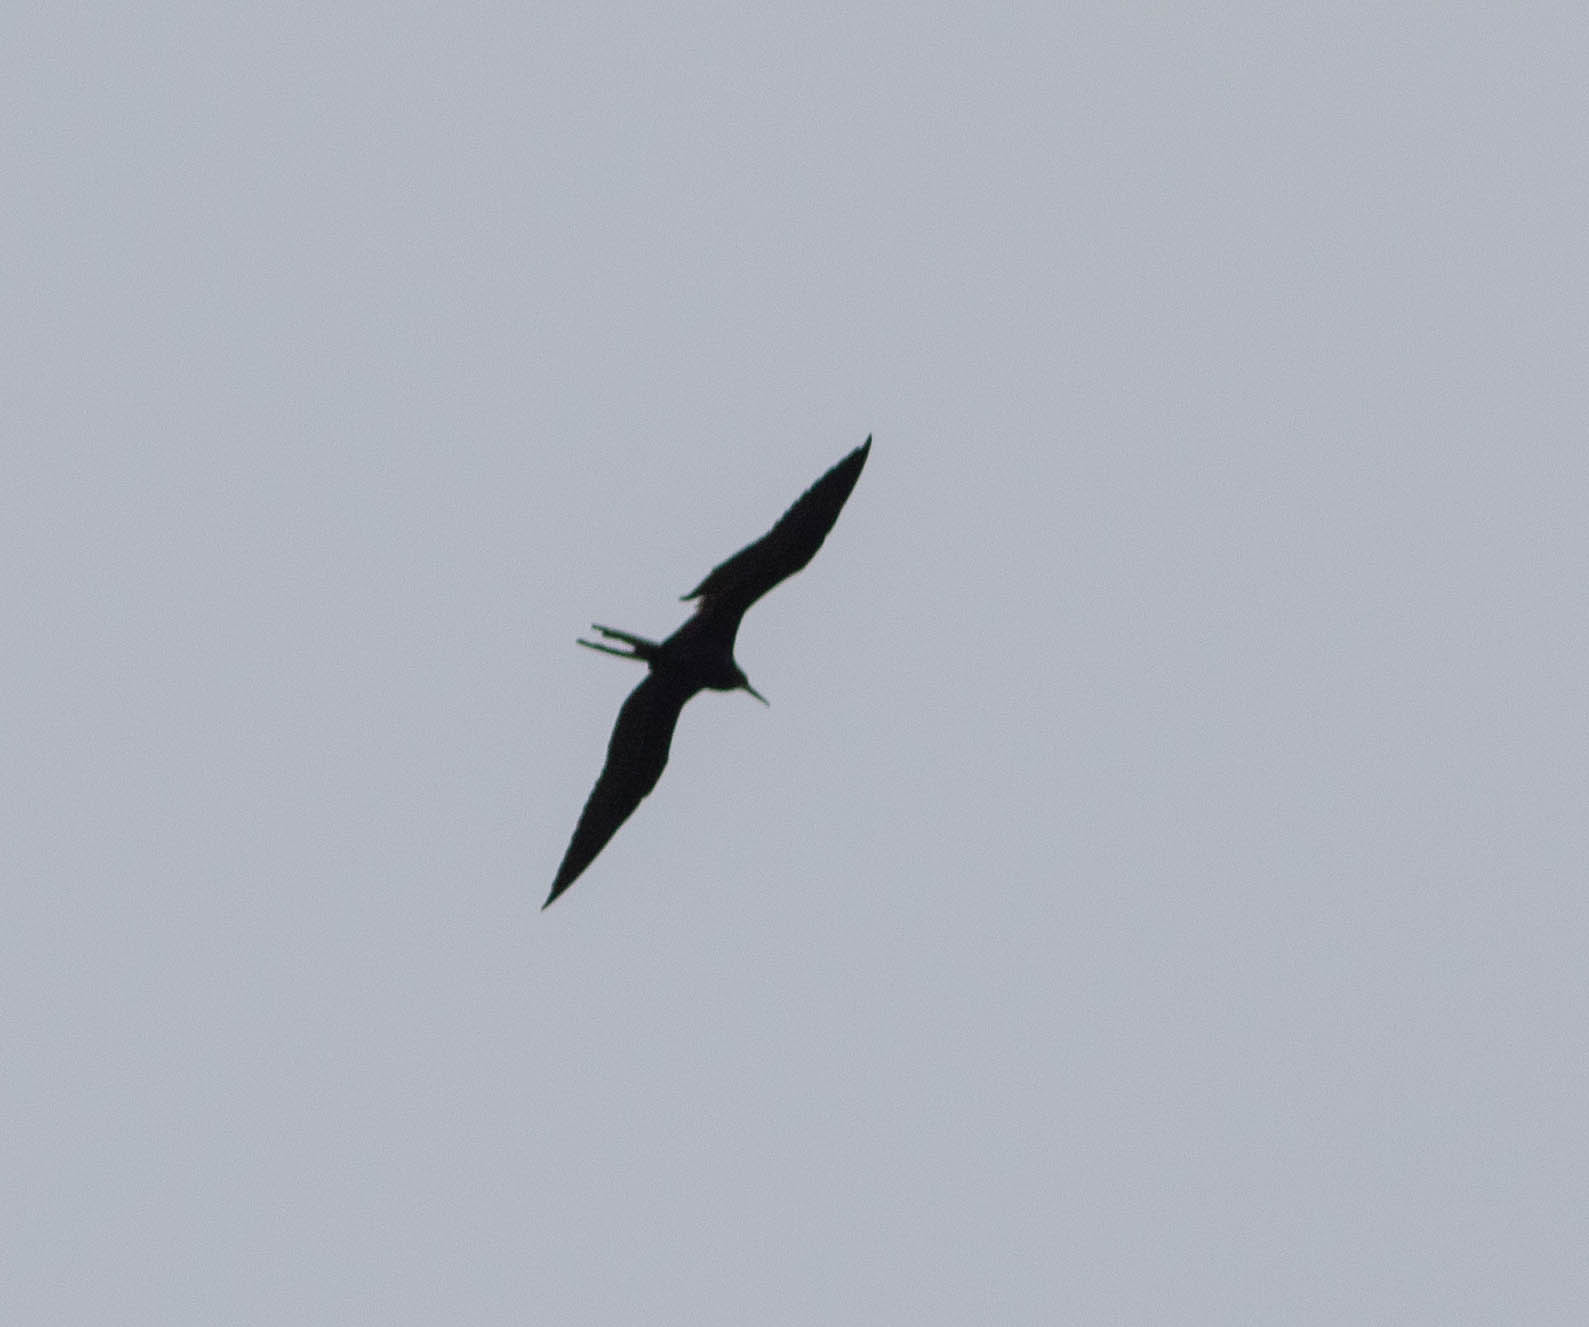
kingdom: Animalia
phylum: Chordata
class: Aves
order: Suliformes
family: Fregatidae
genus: Fregata
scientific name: Fregata magnificens
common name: Magnificent frigatebird
